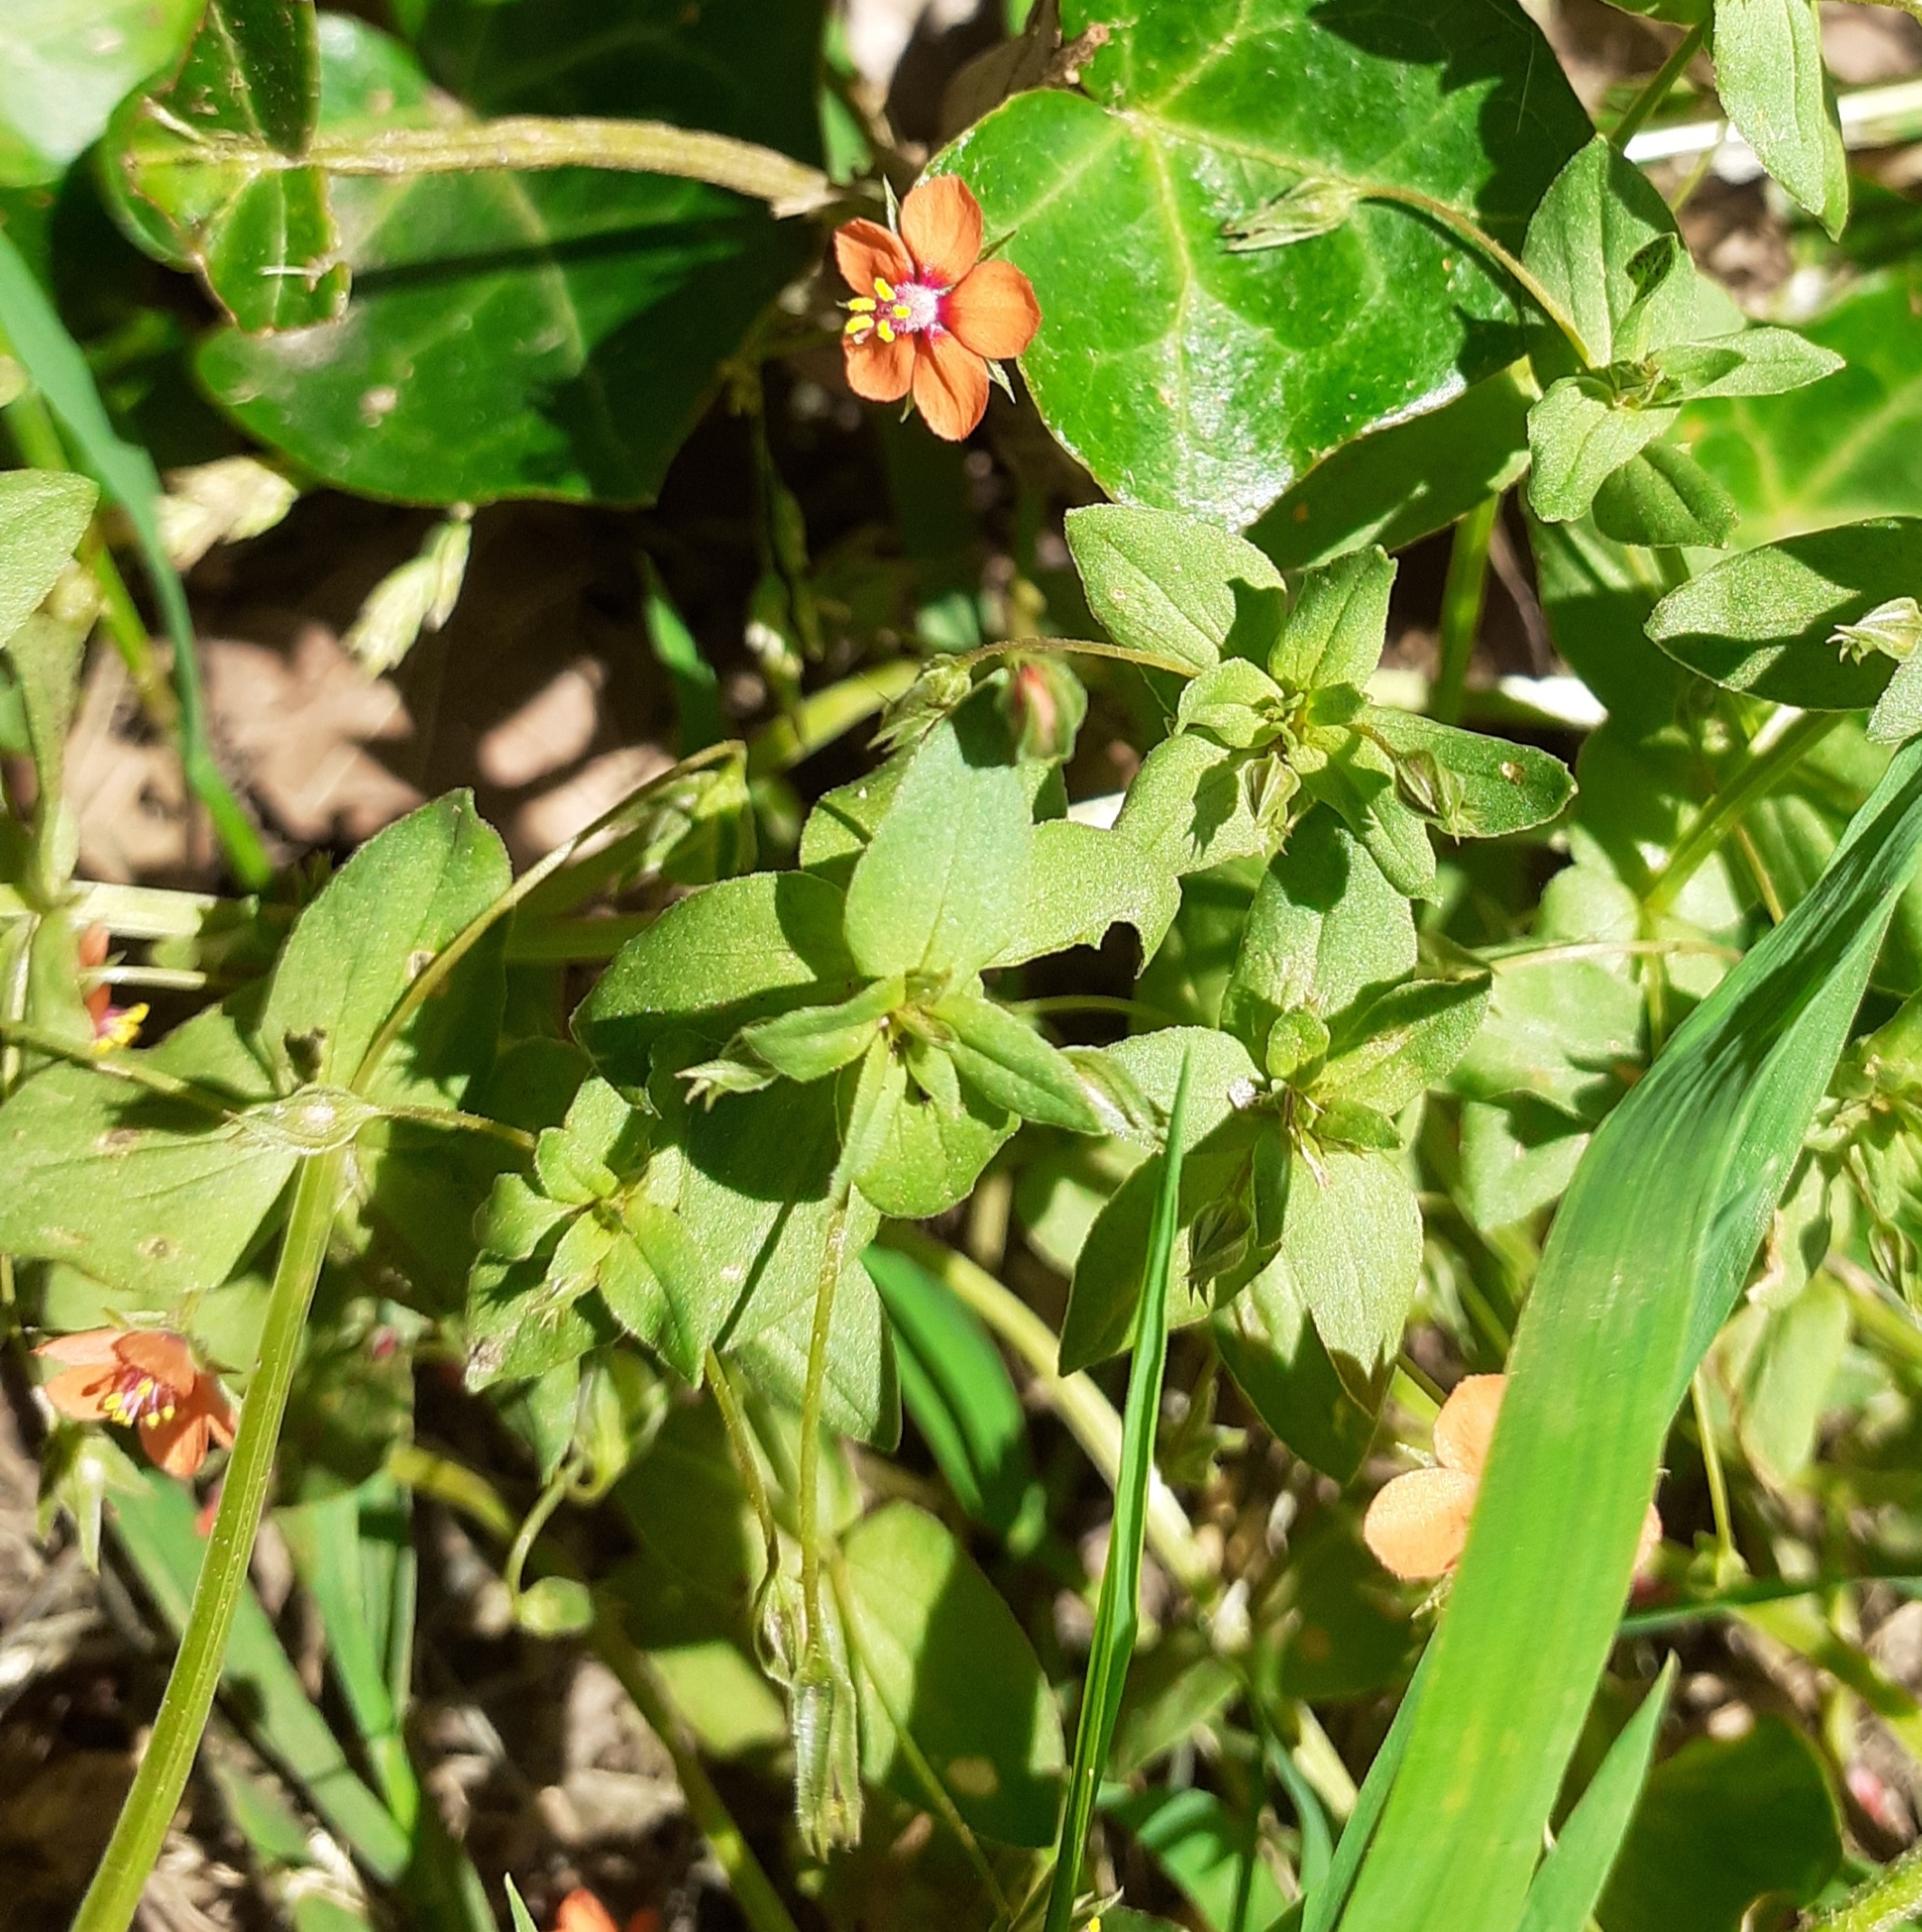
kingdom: Plantae
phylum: Tracheophyta
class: Magnoliopsida
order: Ericales
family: Primulaceae
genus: Lysimachia
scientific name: Lysimachia arvensis
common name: Scarlet pimpernel
